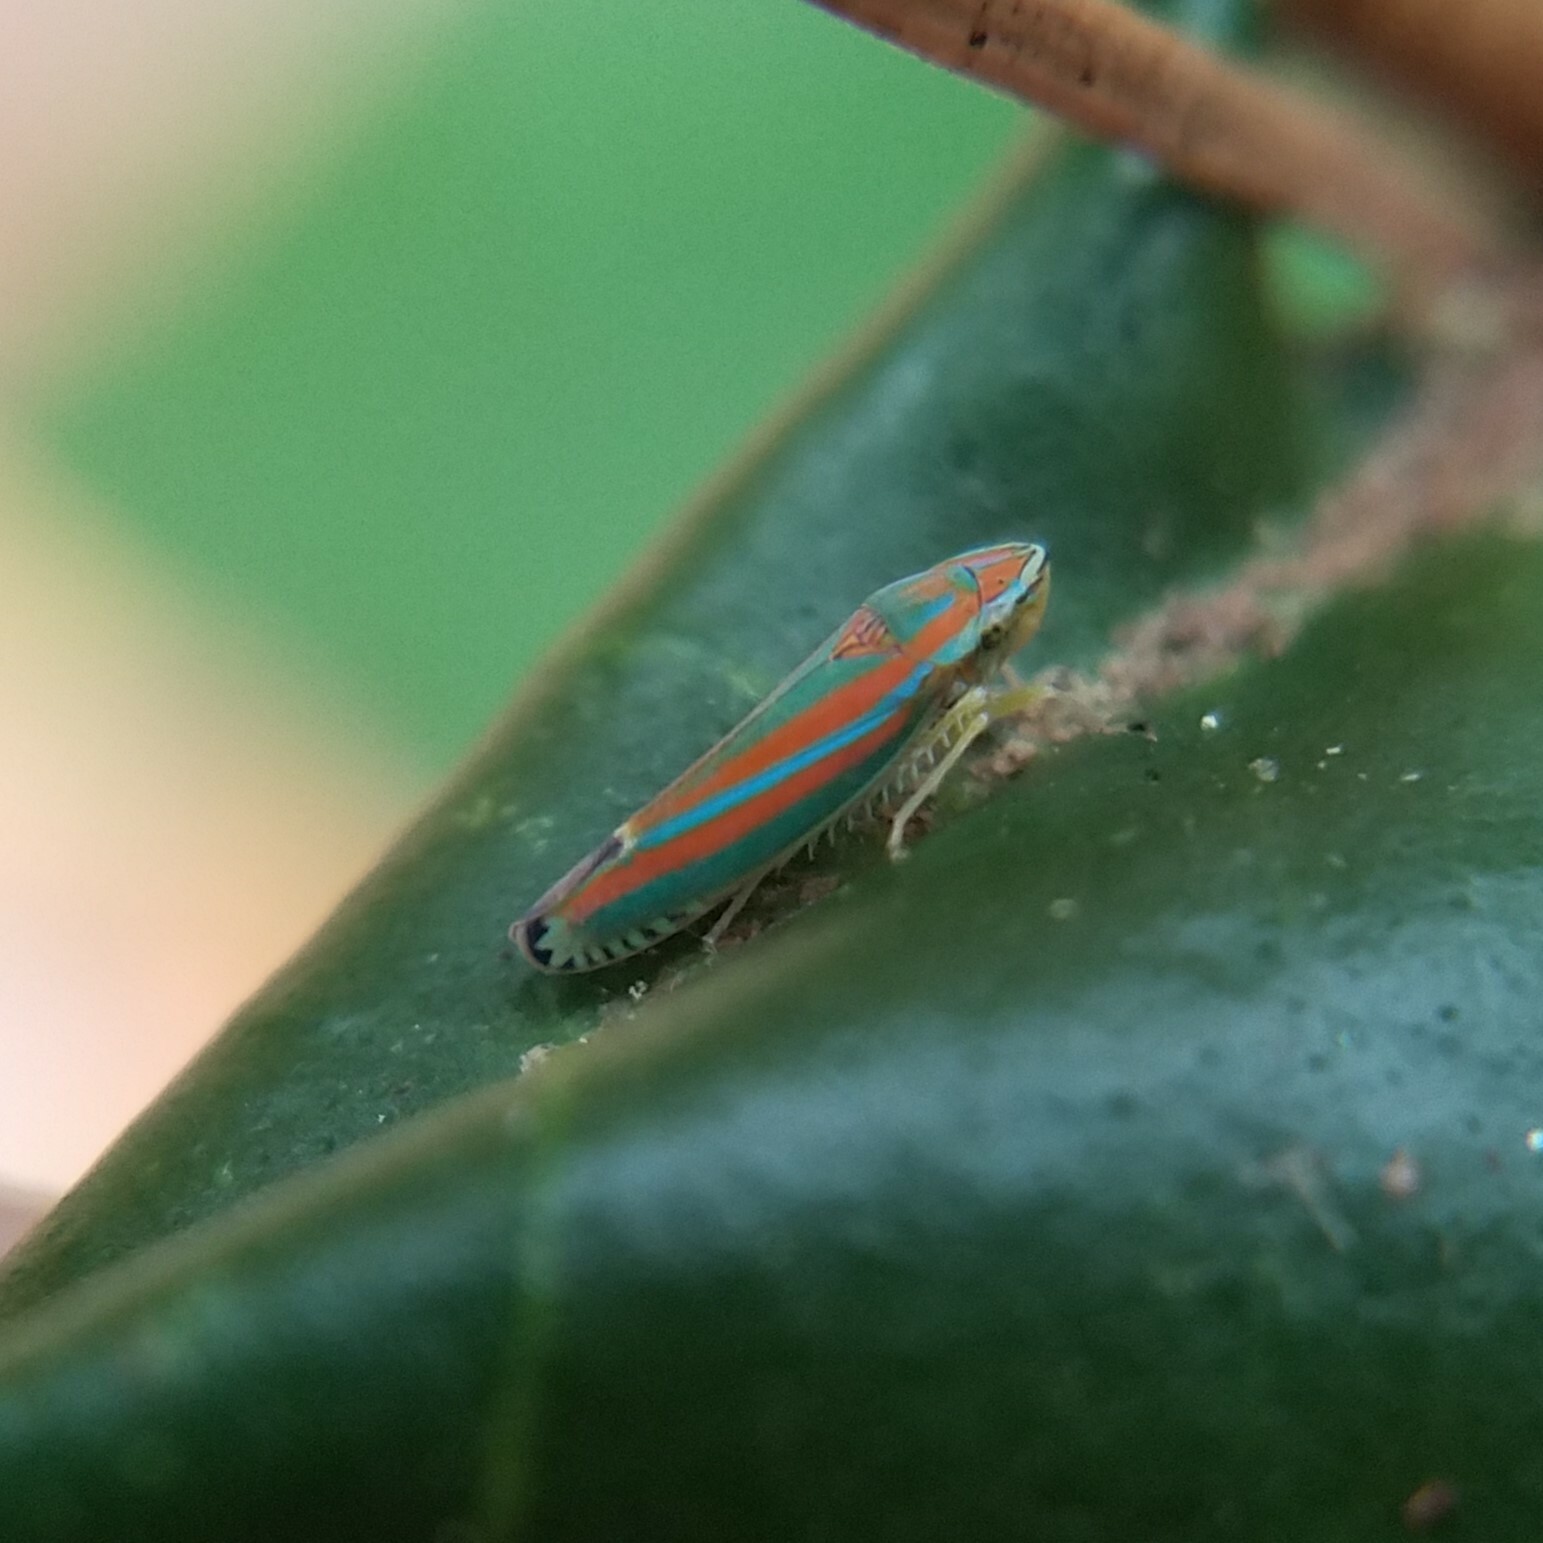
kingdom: Animalia
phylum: Arthropoda
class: Insecta
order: Hemiptera
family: Cicadellidae
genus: Graphocephala
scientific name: Graphocephala versuta
